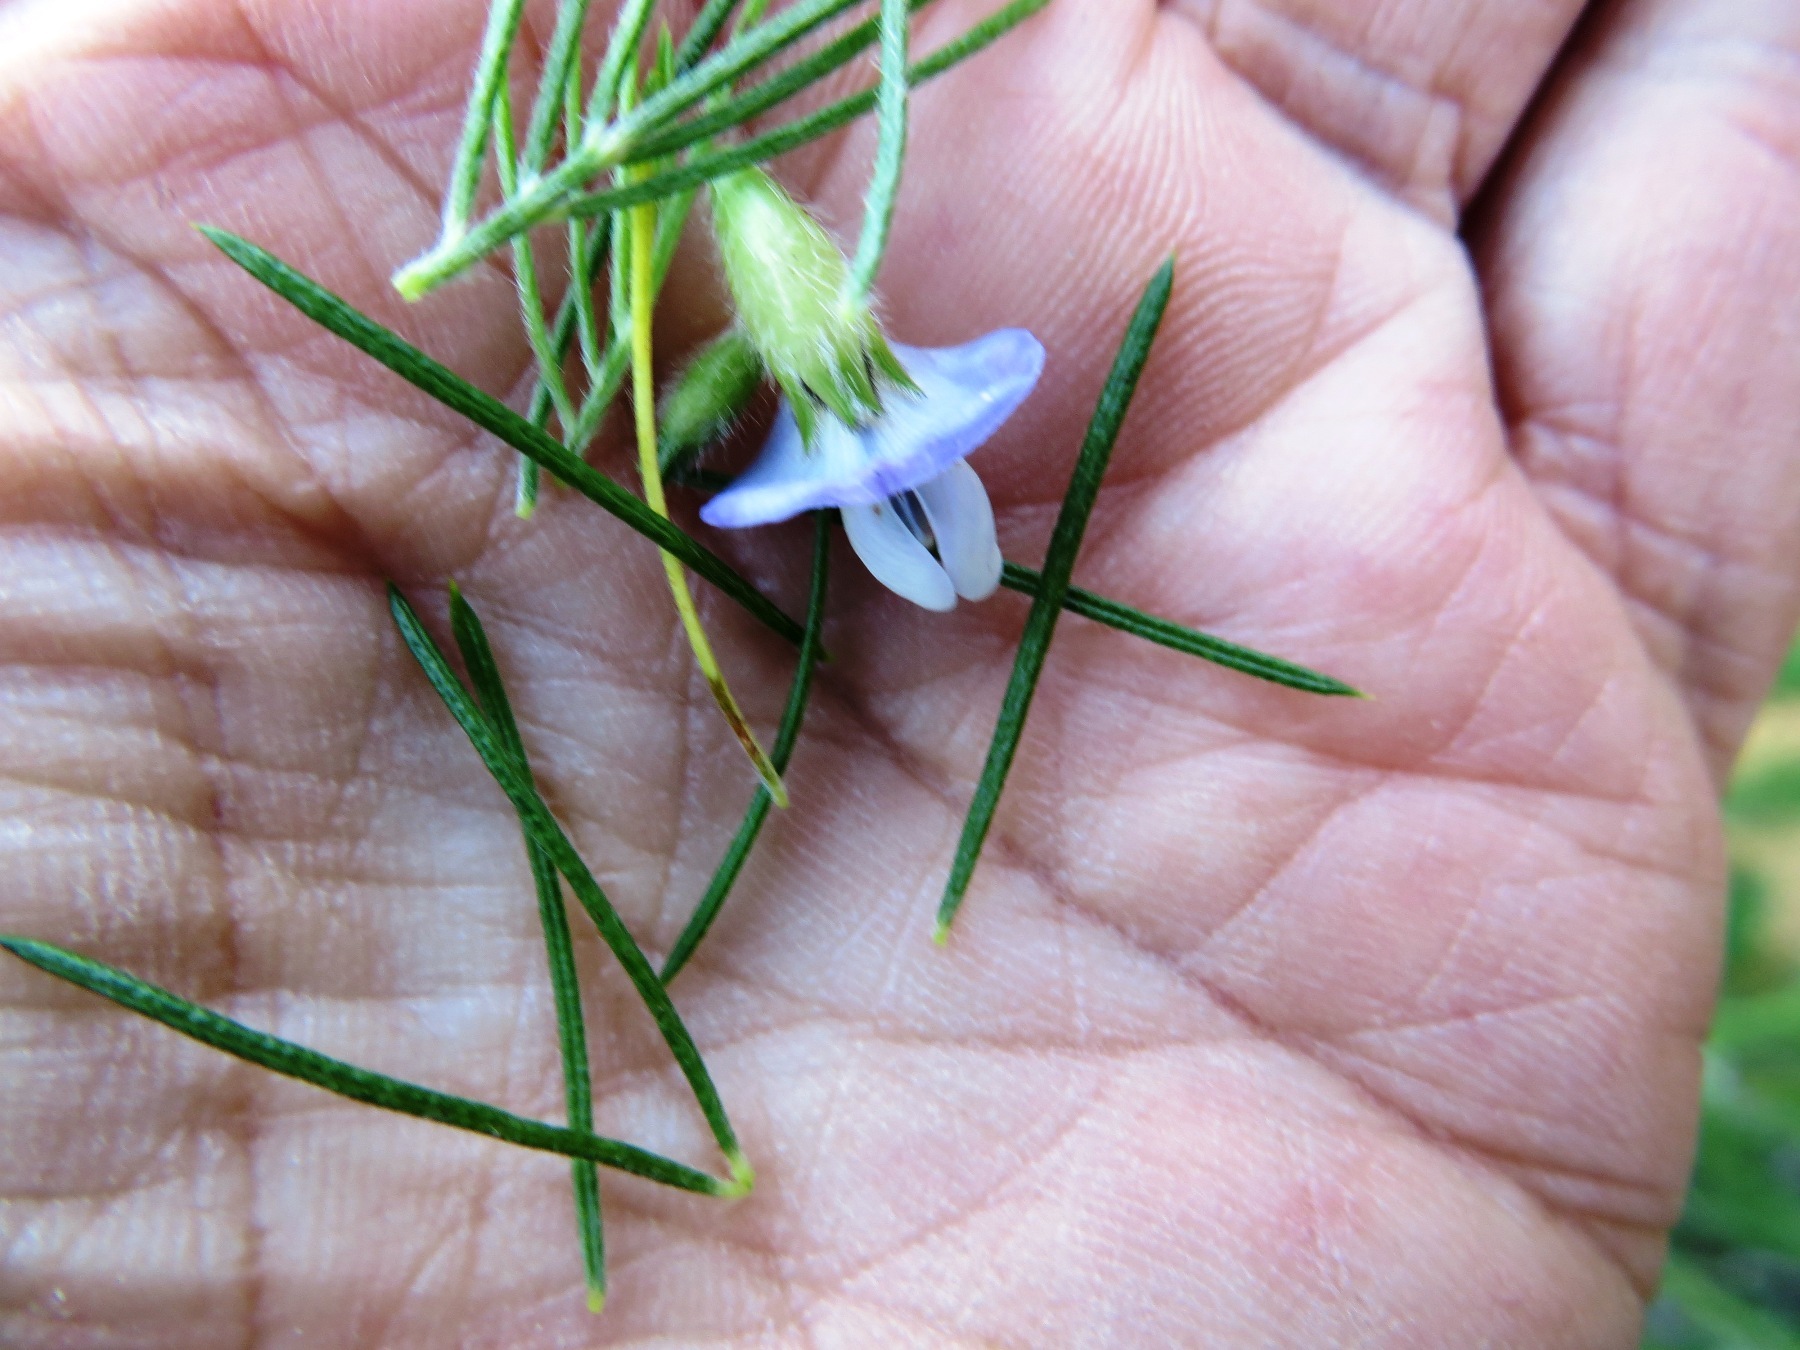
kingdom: Plantae
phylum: Tracheophyta
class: Magnoliopsida
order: Fabales
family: Fabaceae
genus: Psoralea
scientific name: Psoralea pinnata
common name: African scurfpea
